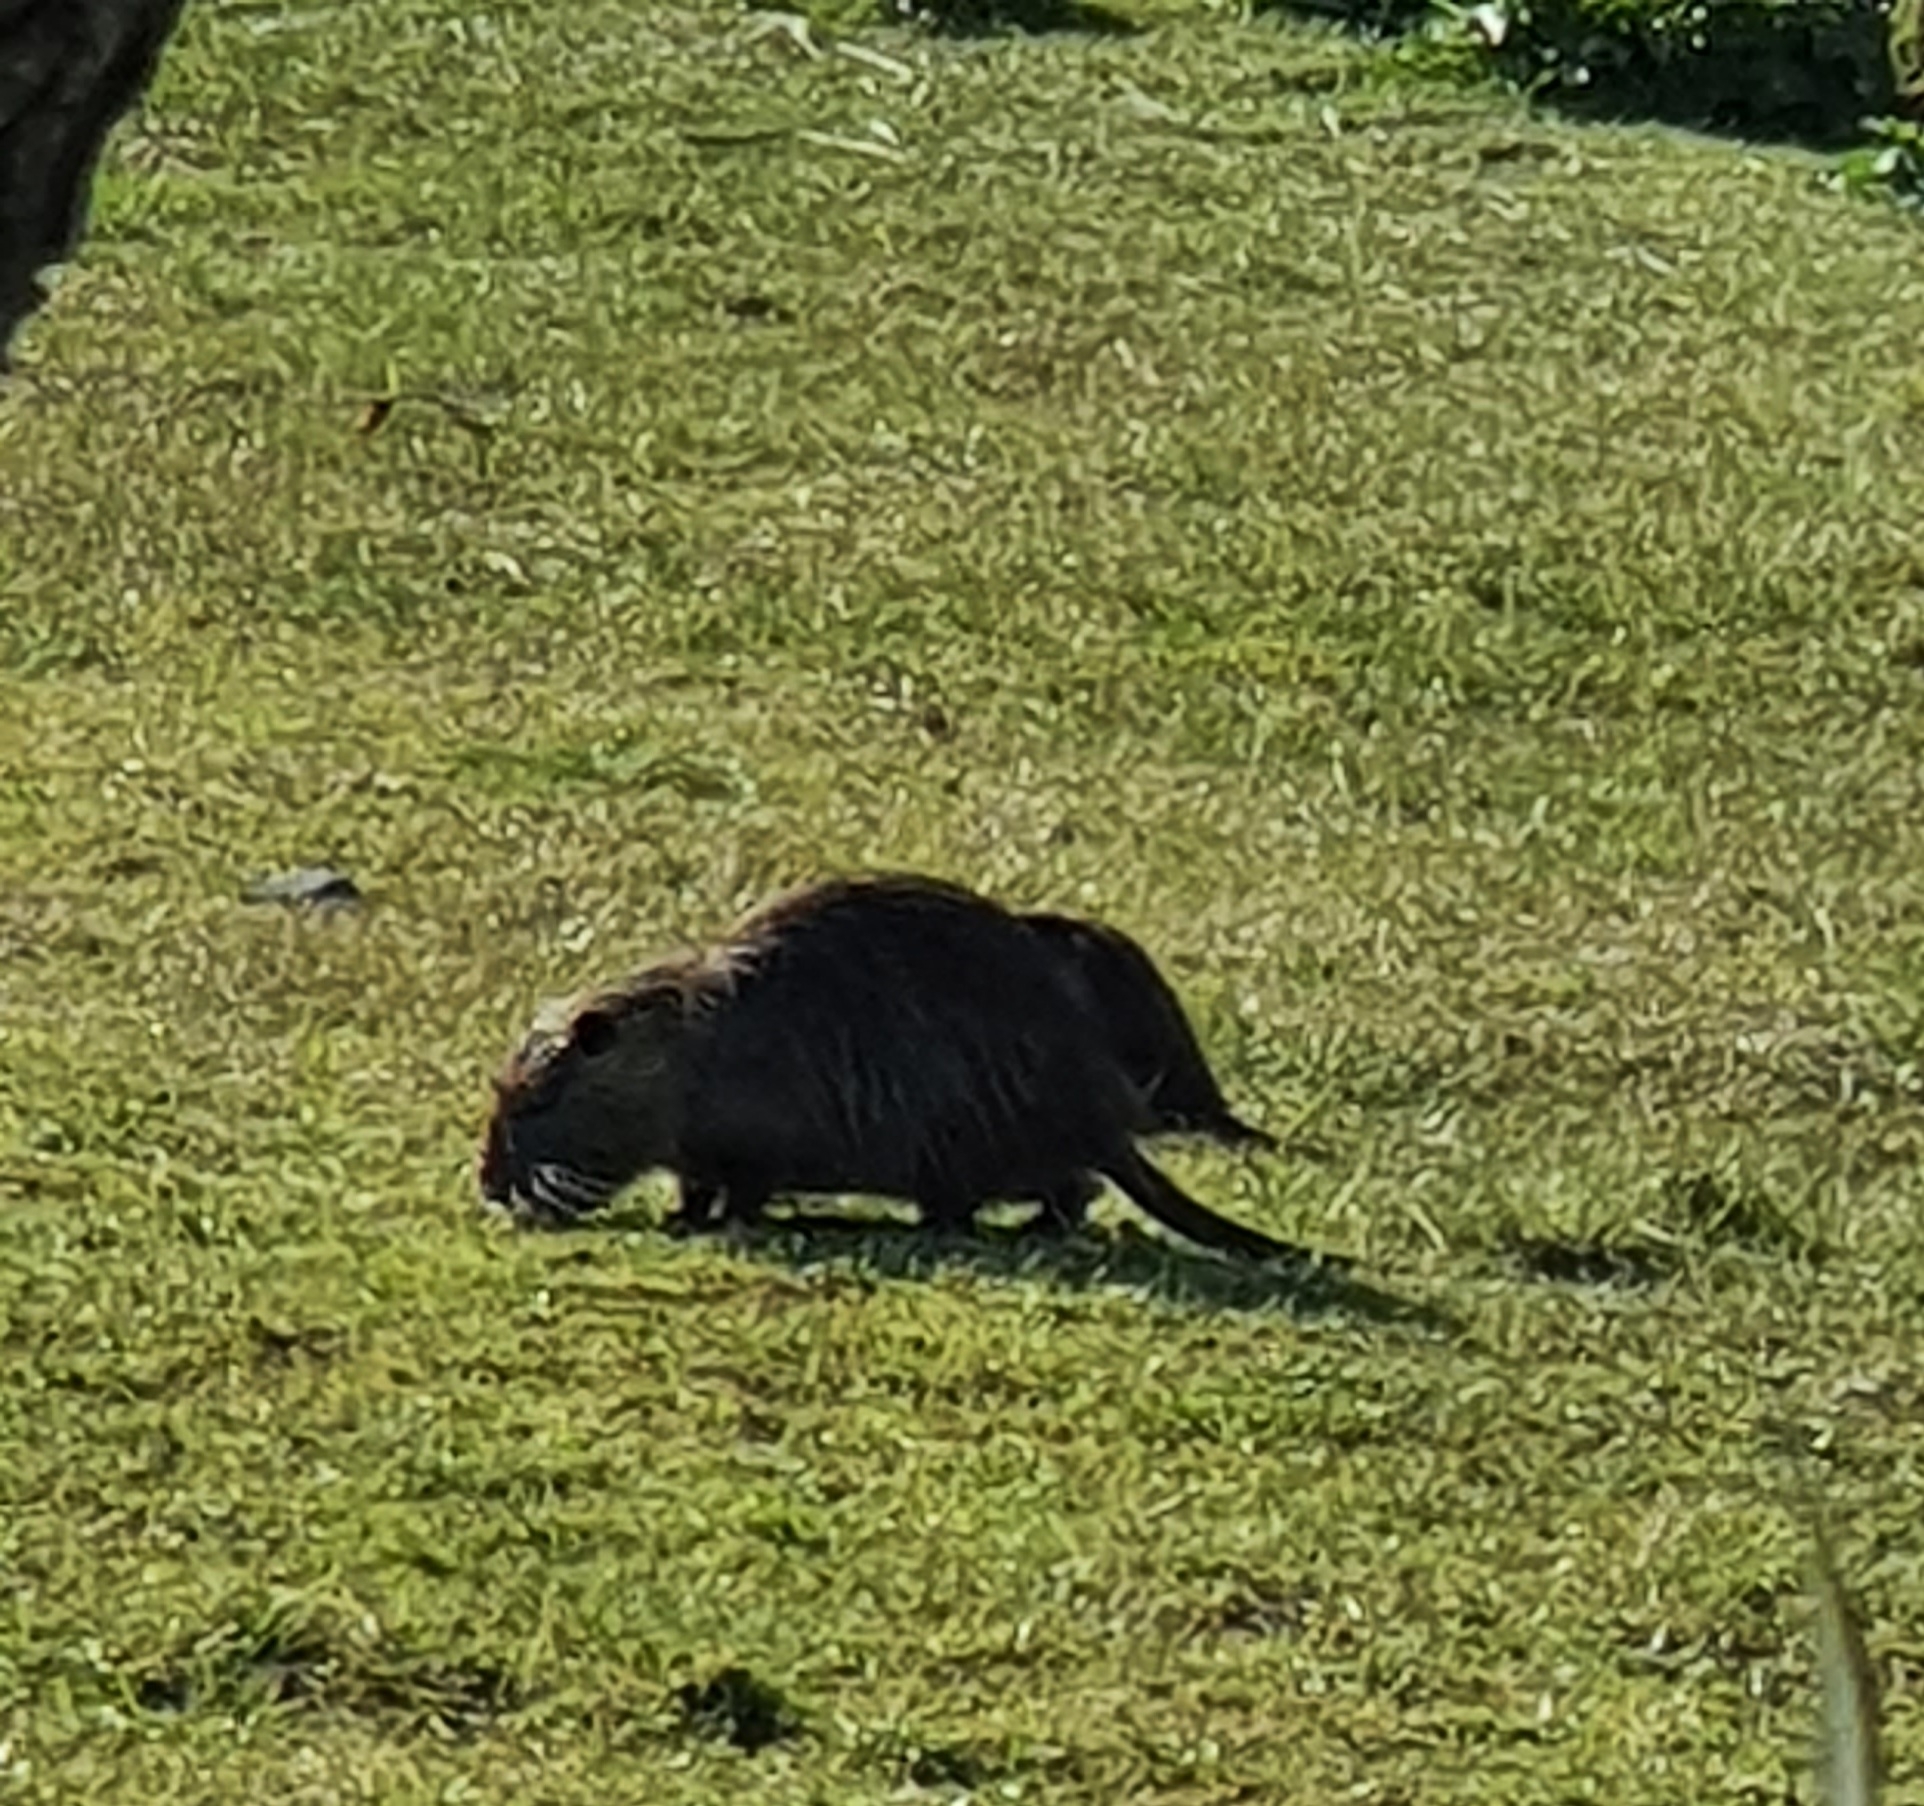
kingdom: Animalia
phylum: Chordata
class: Mammalia
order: Rodentia
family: Myocastoridae
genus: Myocastor
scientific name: Myocastor coypus
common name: Coypu
